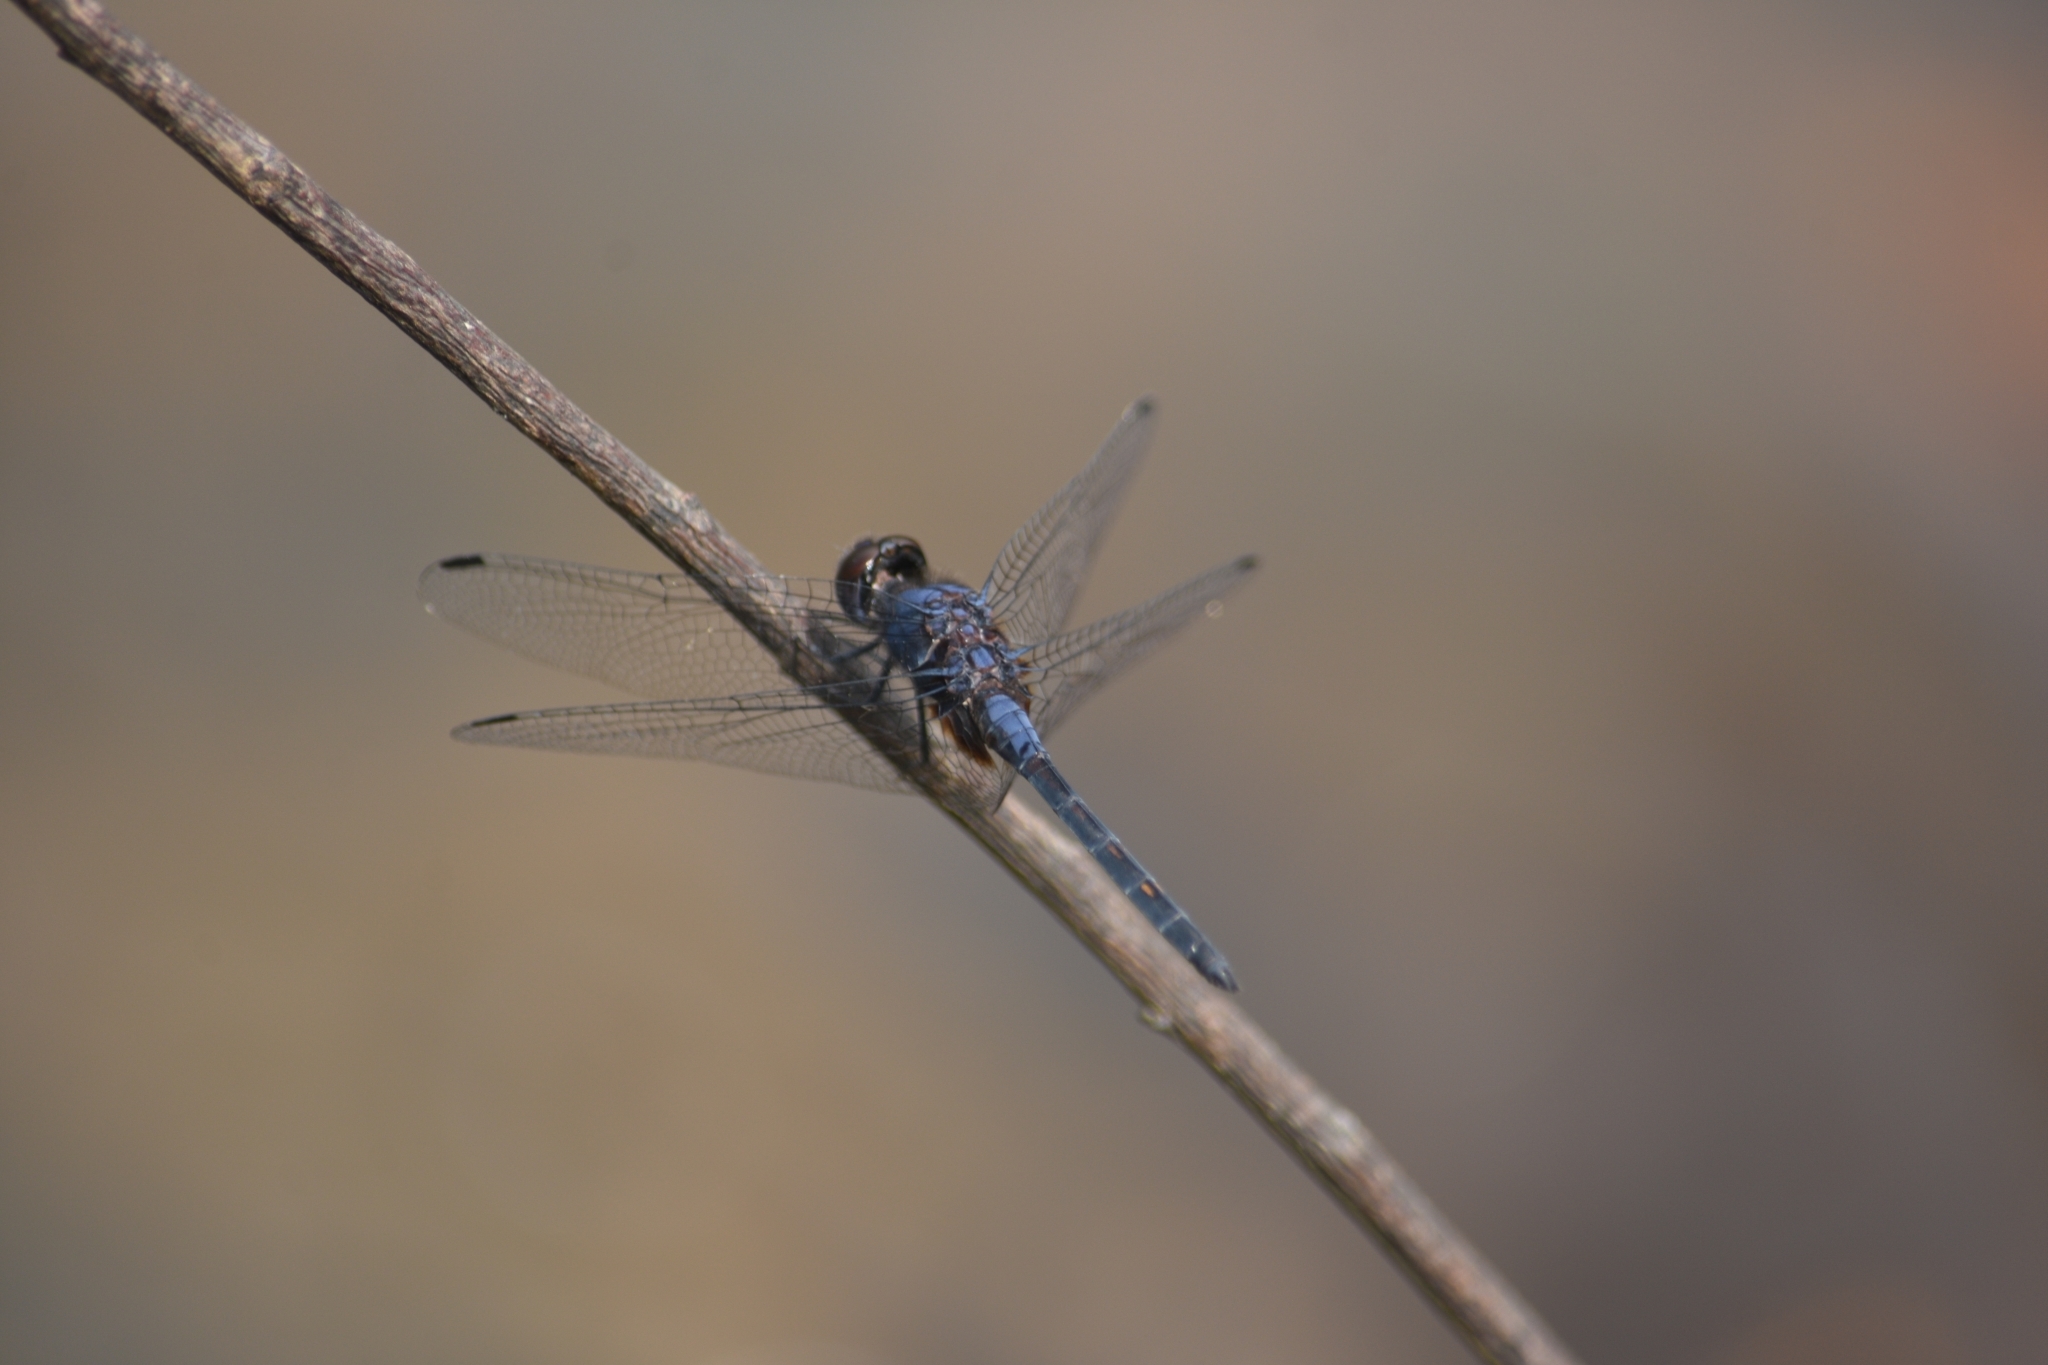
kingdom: Animalia
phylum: Arthropoda
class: Insecta
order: Odonata
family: Libellulidae
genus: Trithemis
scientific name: Trithemis festiva
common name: Indigo dropwing
